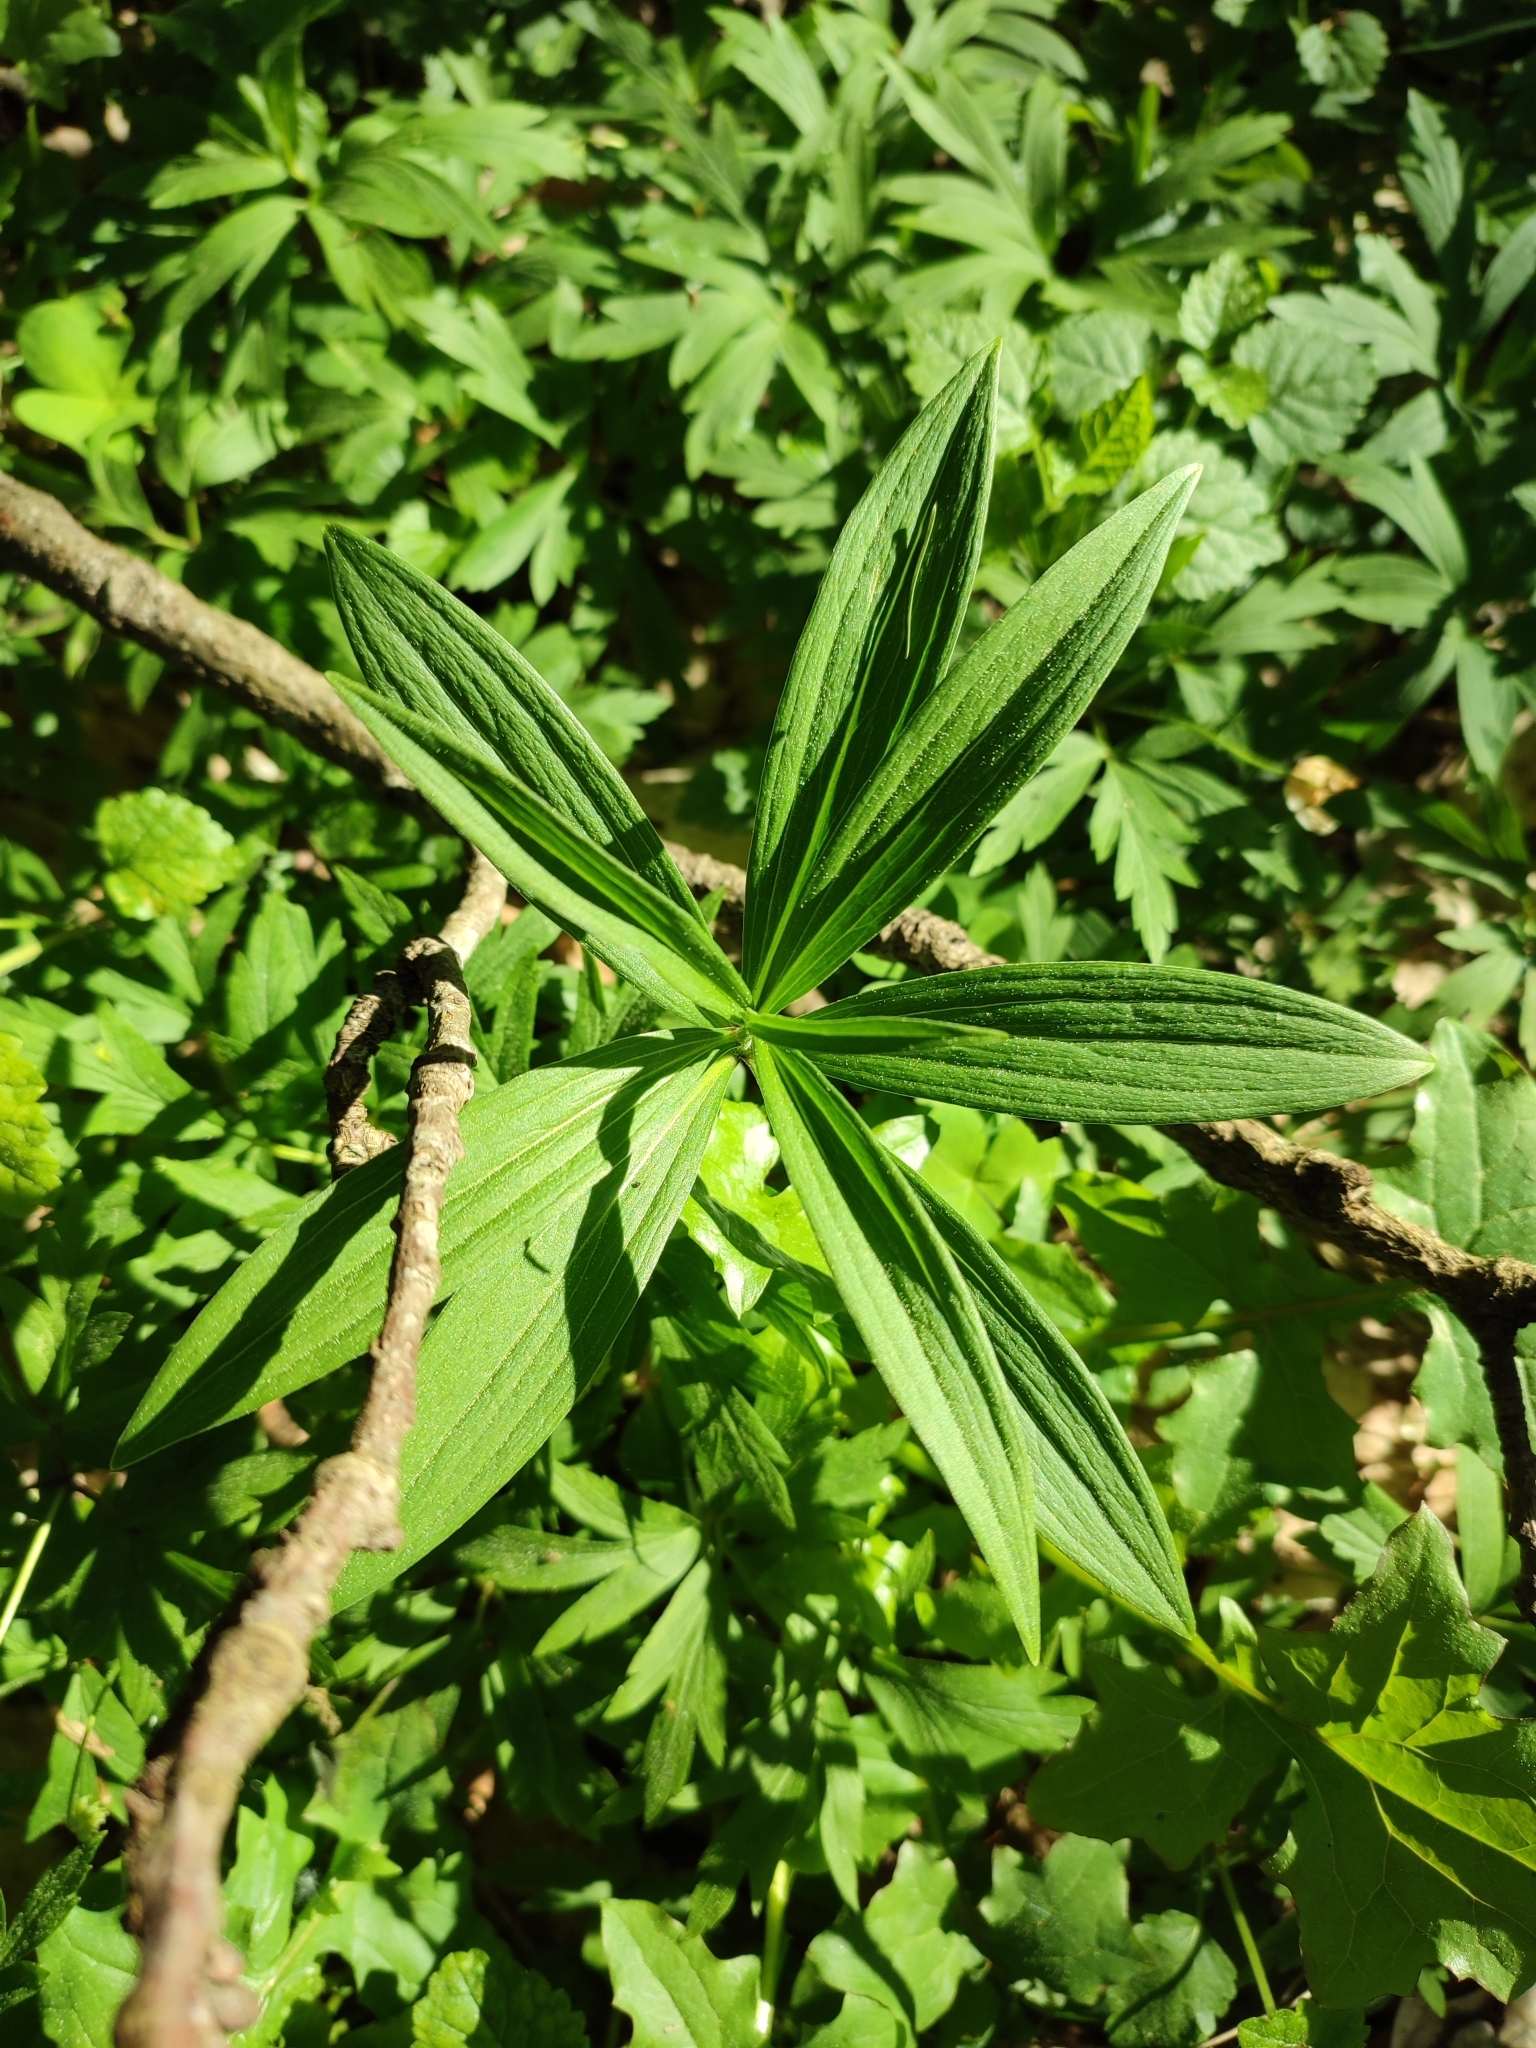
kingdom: Plantae
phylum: Tracheophyta
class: Liliopsida
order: Liliales
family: Liliaceae
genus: Lilium
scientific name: Lilium martagon
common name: Martagon lily
